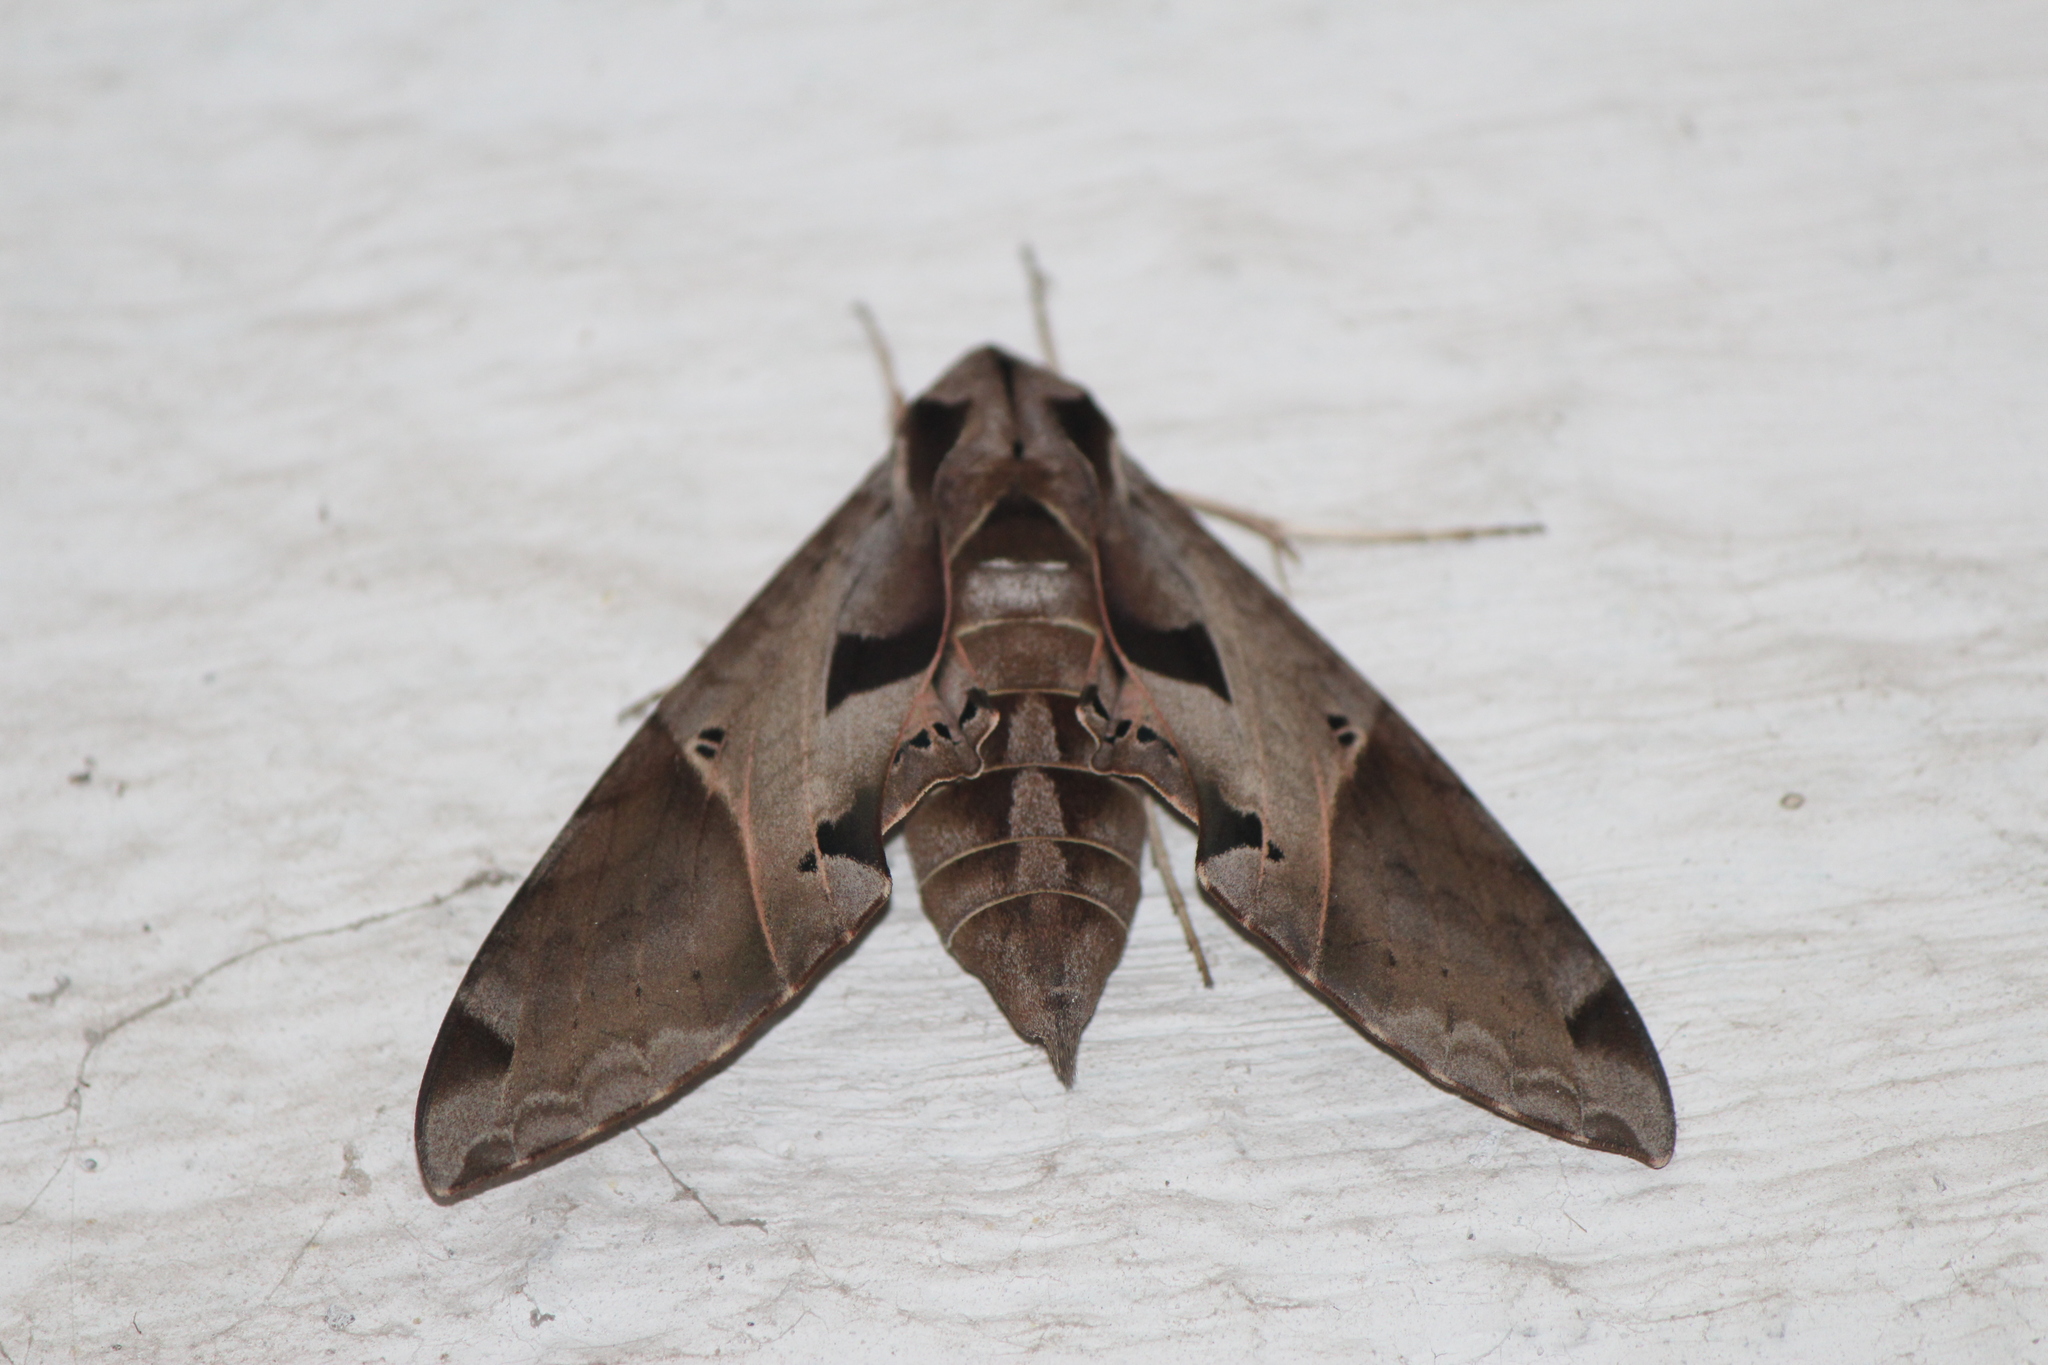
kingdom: Animalia
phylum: Arthropoda
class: Insecta
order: Lepidoptera
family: Sphingidae
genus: Eumorpha
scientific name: Eumorpha satellitia
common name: Satellite sphinx
